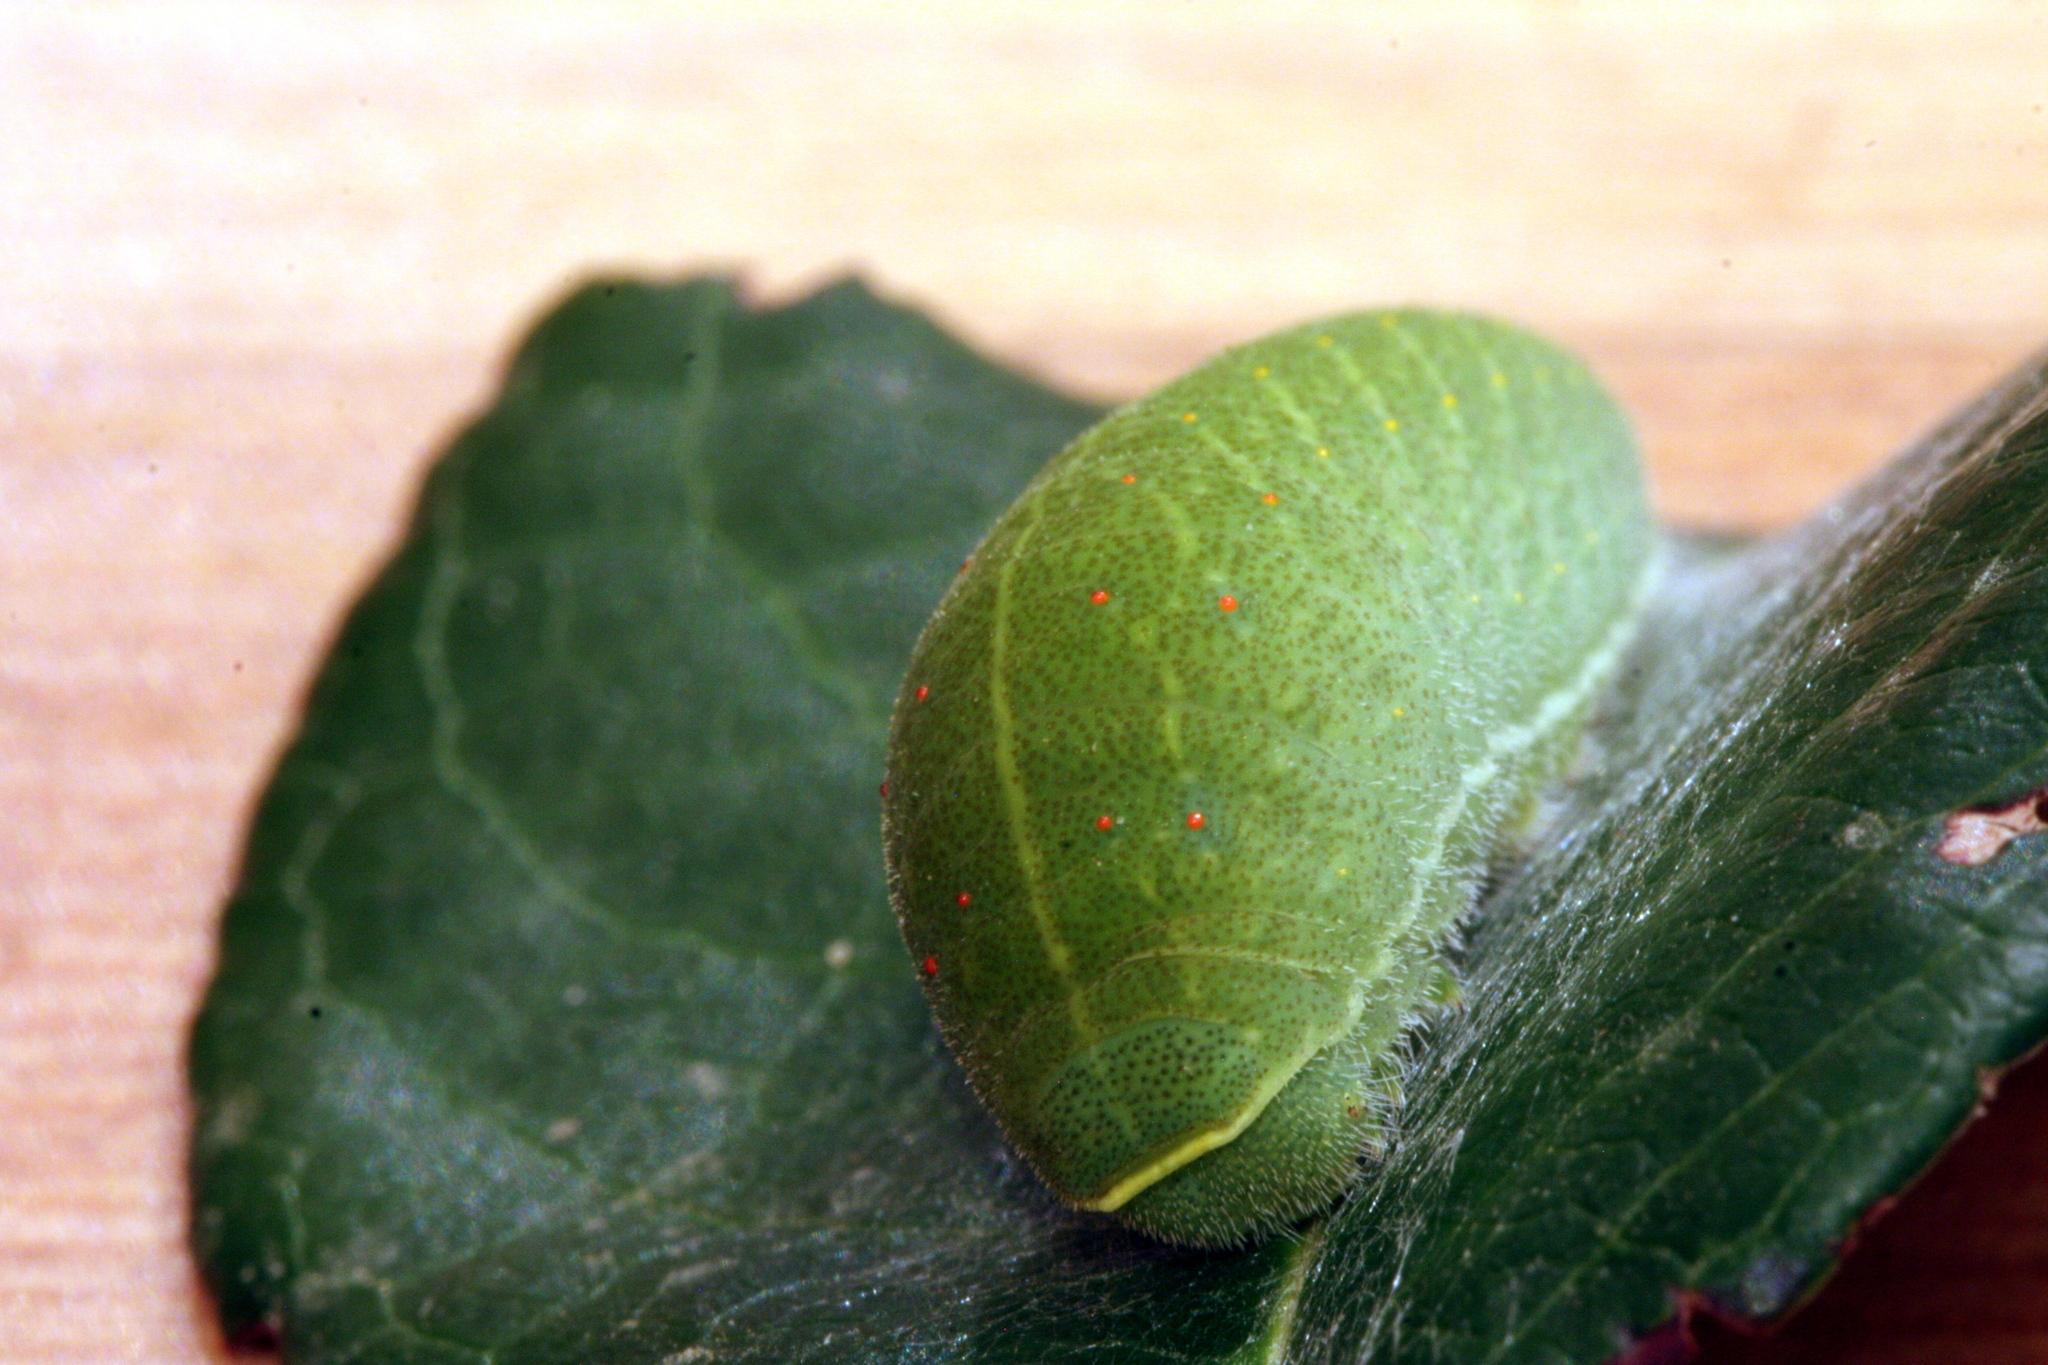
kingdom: Animalia
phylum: Arthropoda
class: Insecta
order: Lepidoptera
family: Papilionidae
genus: Iphiclides
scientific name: Iphiclides podalirius
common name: Scarce swallowtail
